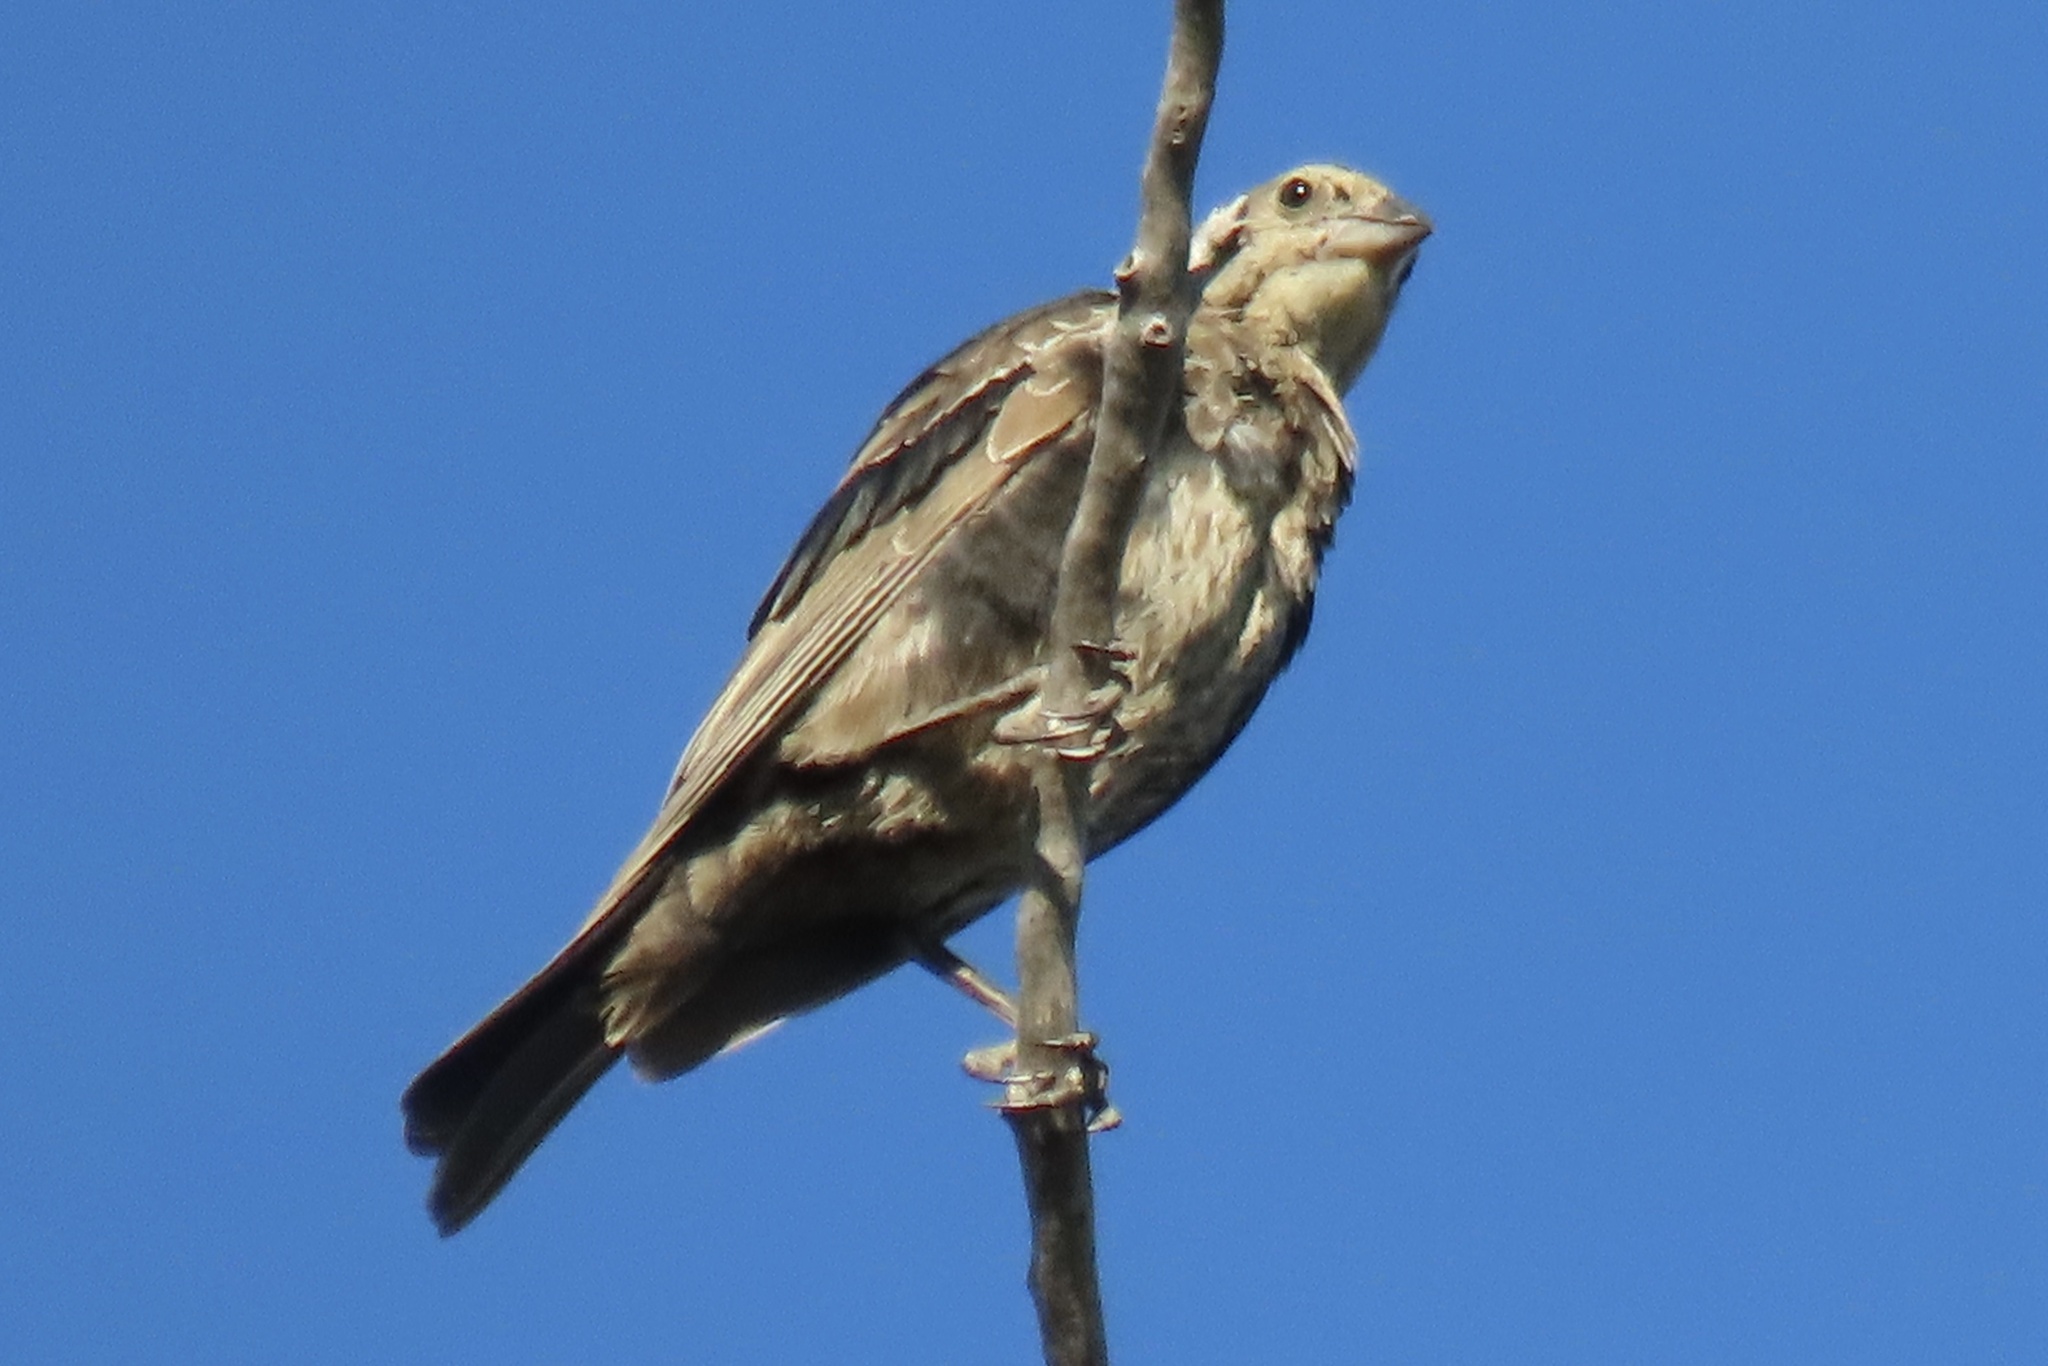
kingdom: Animalia
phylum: Chordata
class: Aves
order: Passeriformes
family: Icteridae
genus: Molothrus
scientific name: Molothrus ater
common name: Brown-headed cowbird
